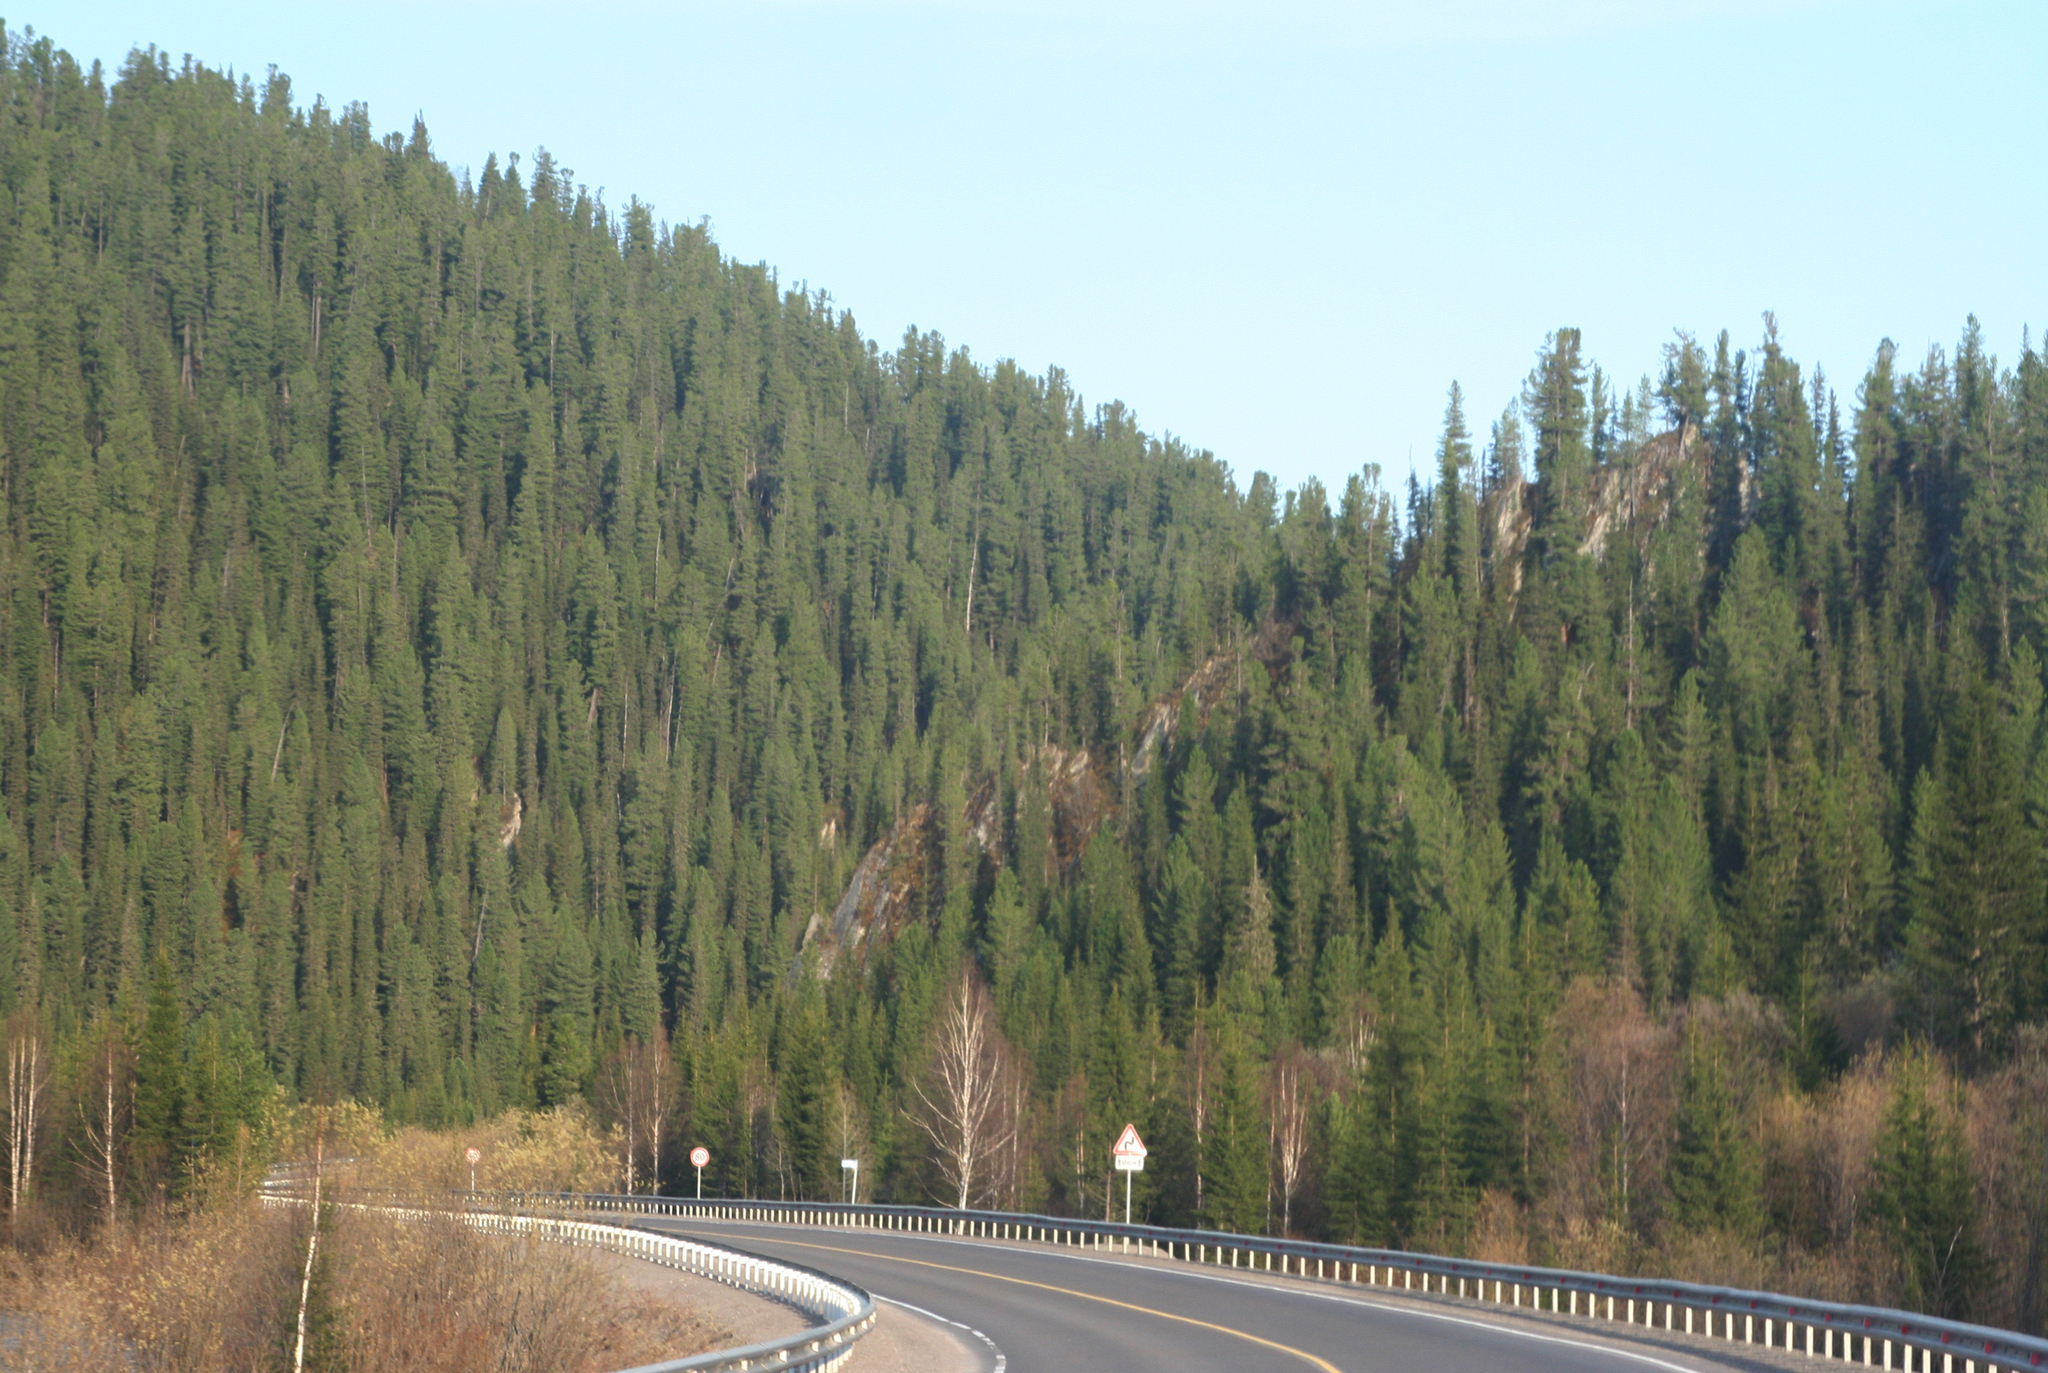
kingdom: Plantae
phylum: Tracheophyta
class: Pinopsida
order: Pinales
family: Pinaceae
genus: Abies
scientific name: Abies sibirica
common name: Siberian fir
